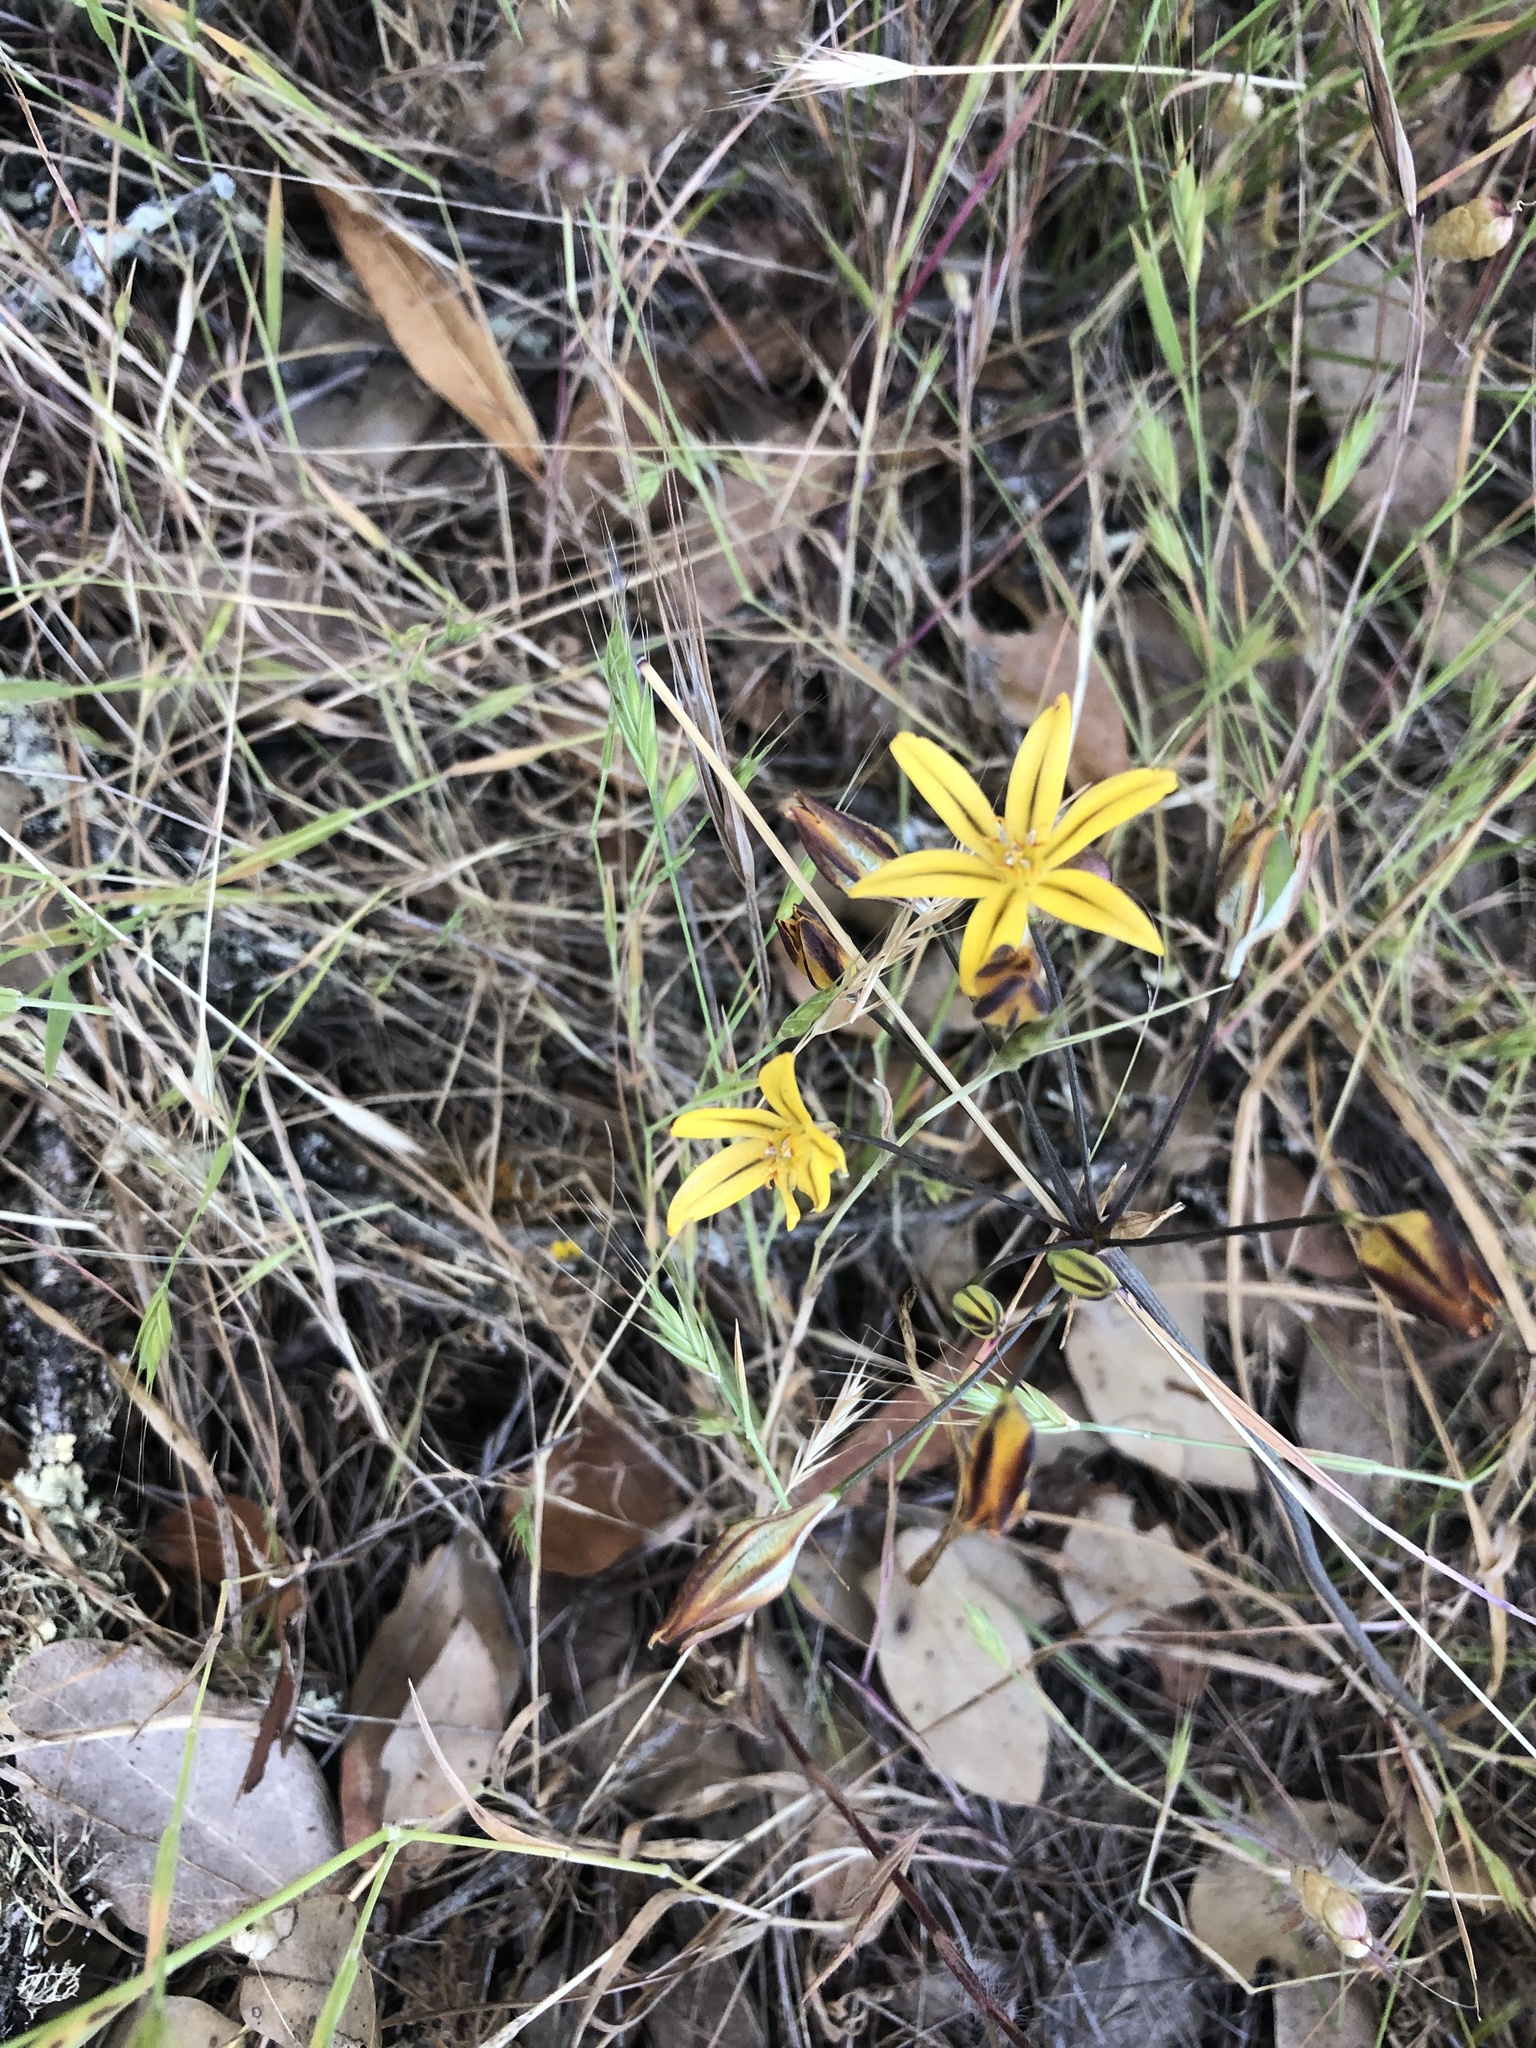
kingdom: Plantae
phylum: Tracheophyta
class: Liliopsida
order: Asparagales
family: Asparagaceae
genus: Triteleia
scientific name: Triteleia ixioides
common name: Yellow-brodiaea
